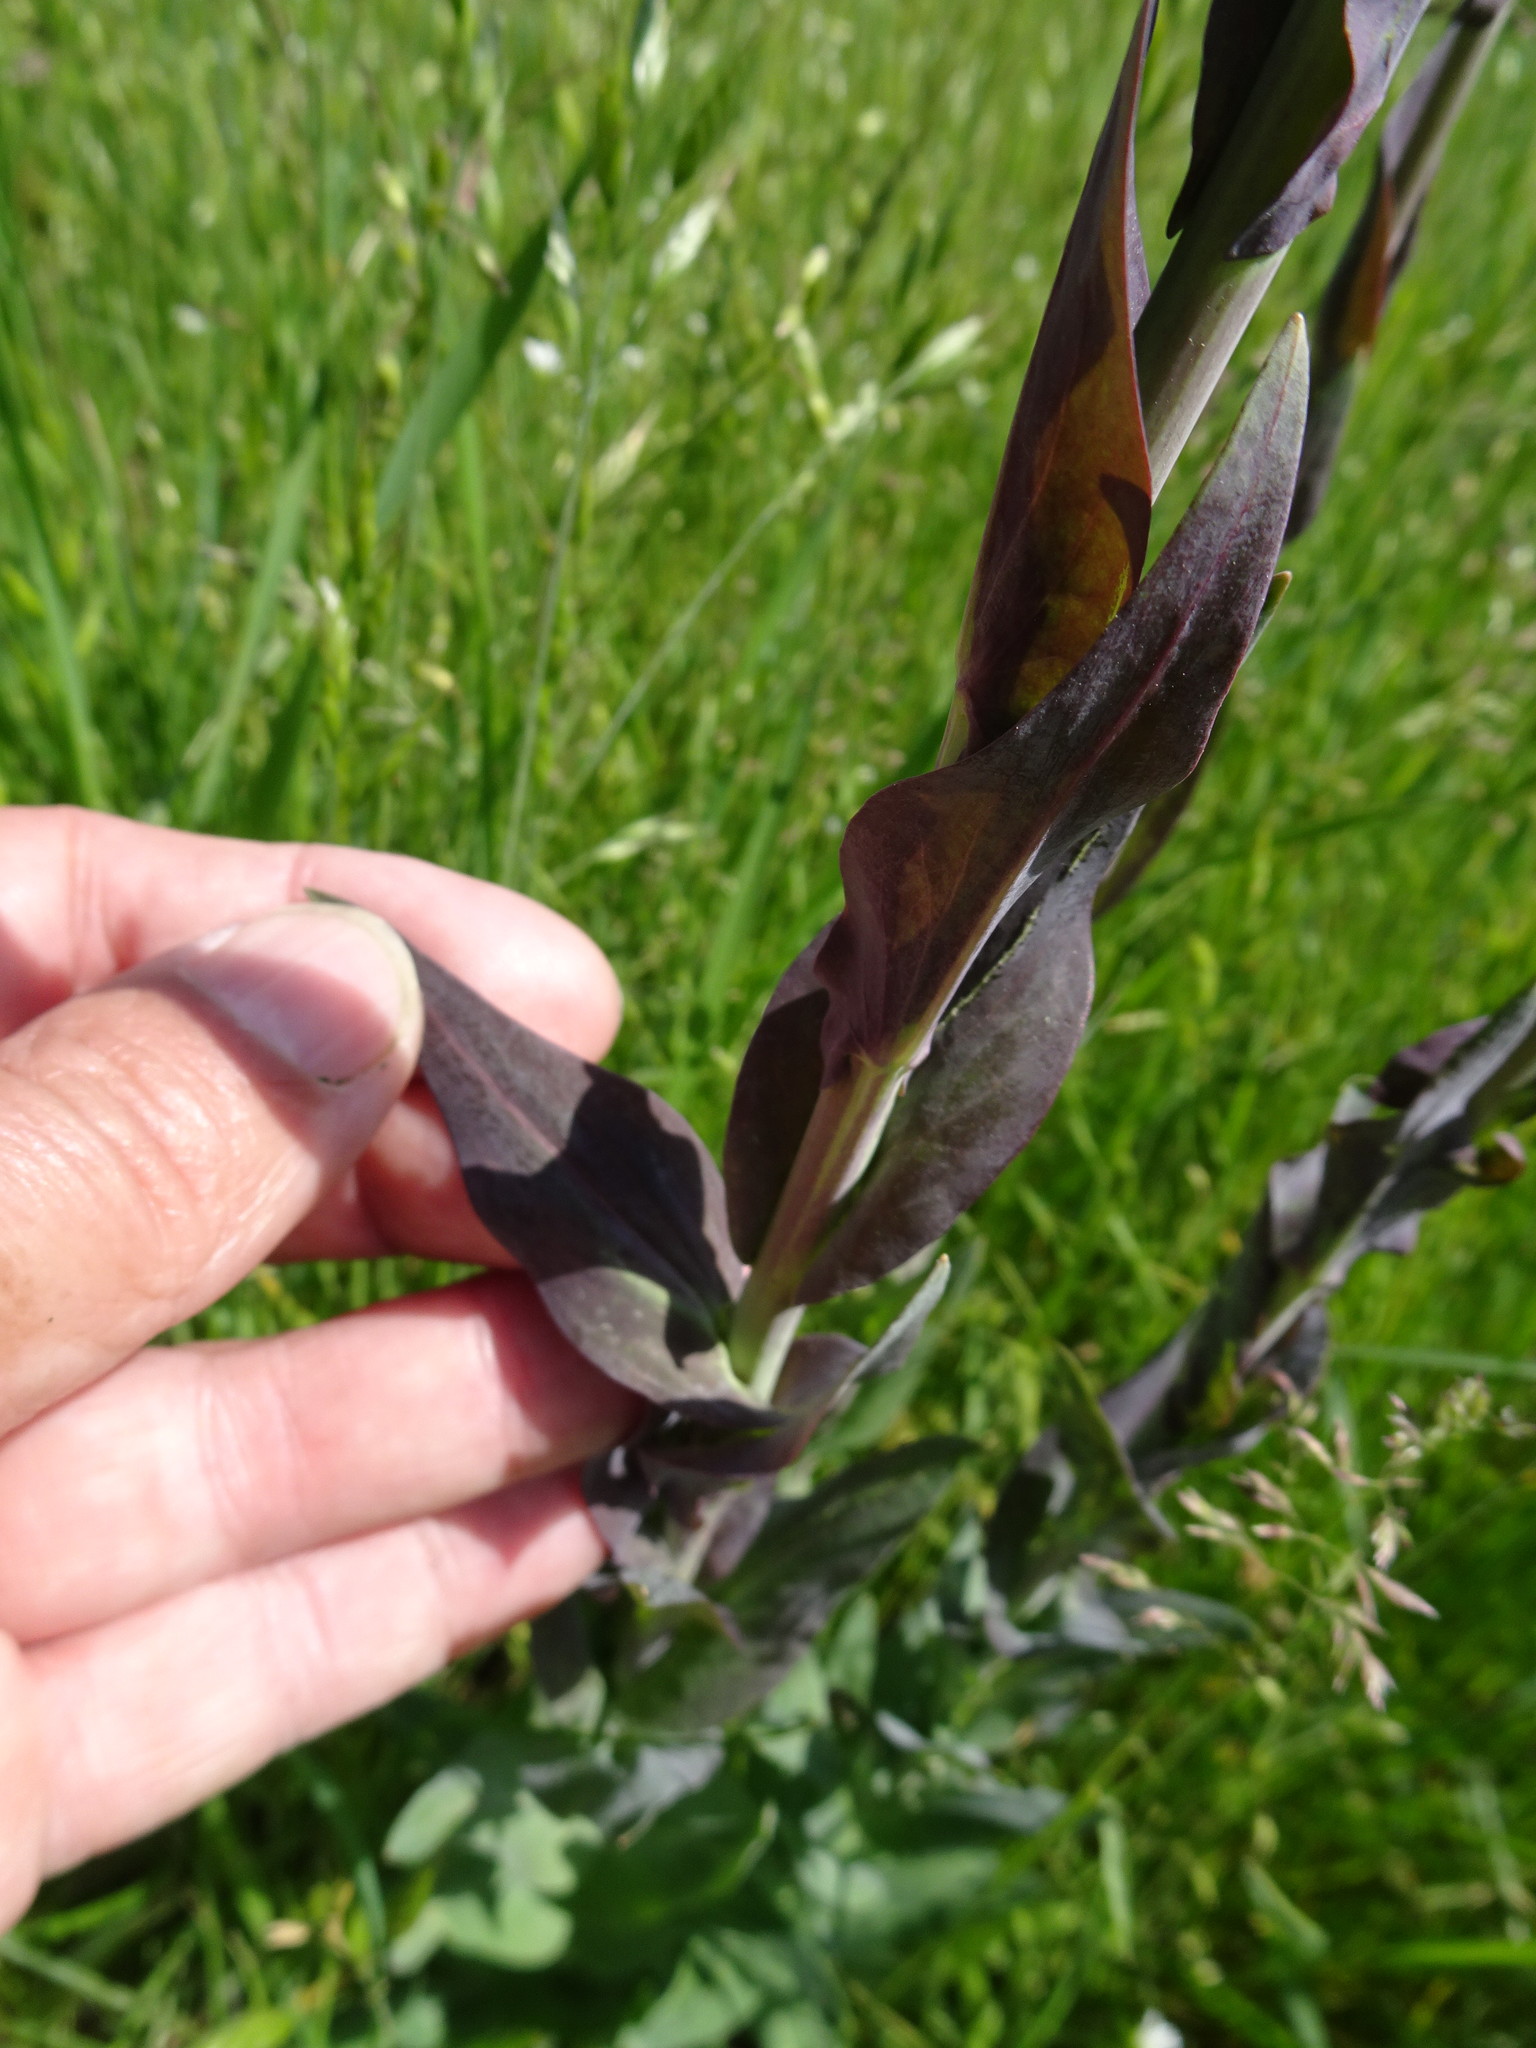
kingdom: Plantae
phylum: Tracheophyta
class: Magnoliopsida
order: Brassicales
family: Brassicaceae
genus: Turritis
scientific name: Turritis glabra
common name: Tower rockcress
